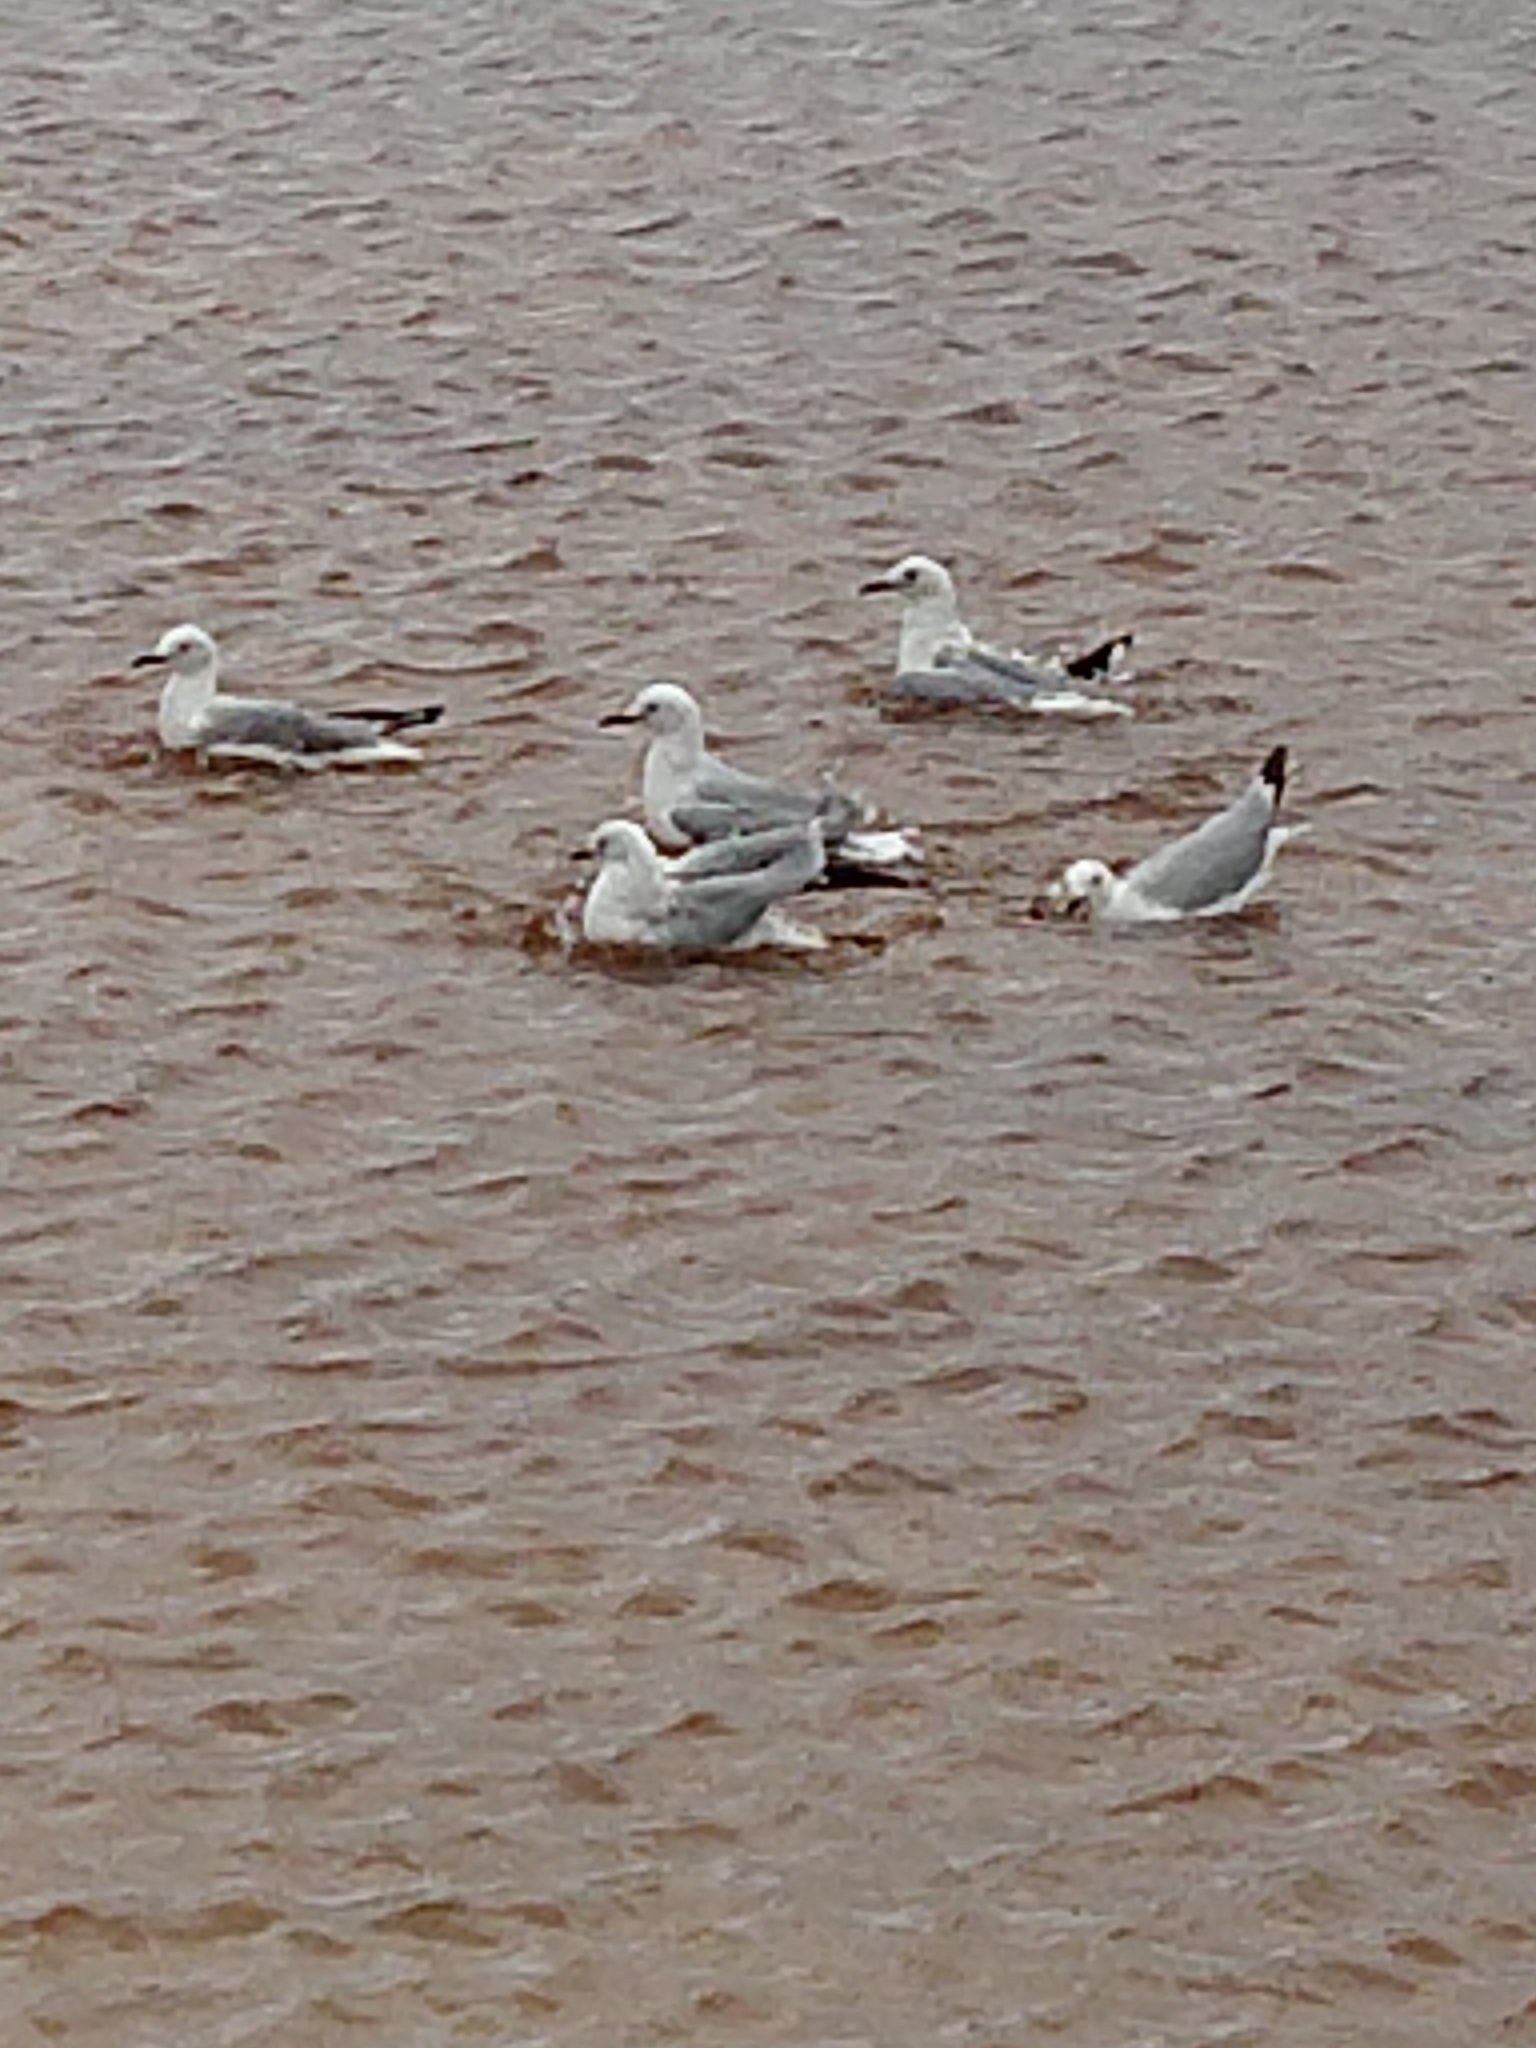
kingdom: Animalia
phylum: Chordata
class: Aves
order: Charadriiformes
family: Laridae
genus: Chroicocephalus
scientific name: Chroicocephalus hartlaubii
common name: Hartlaub's gull
